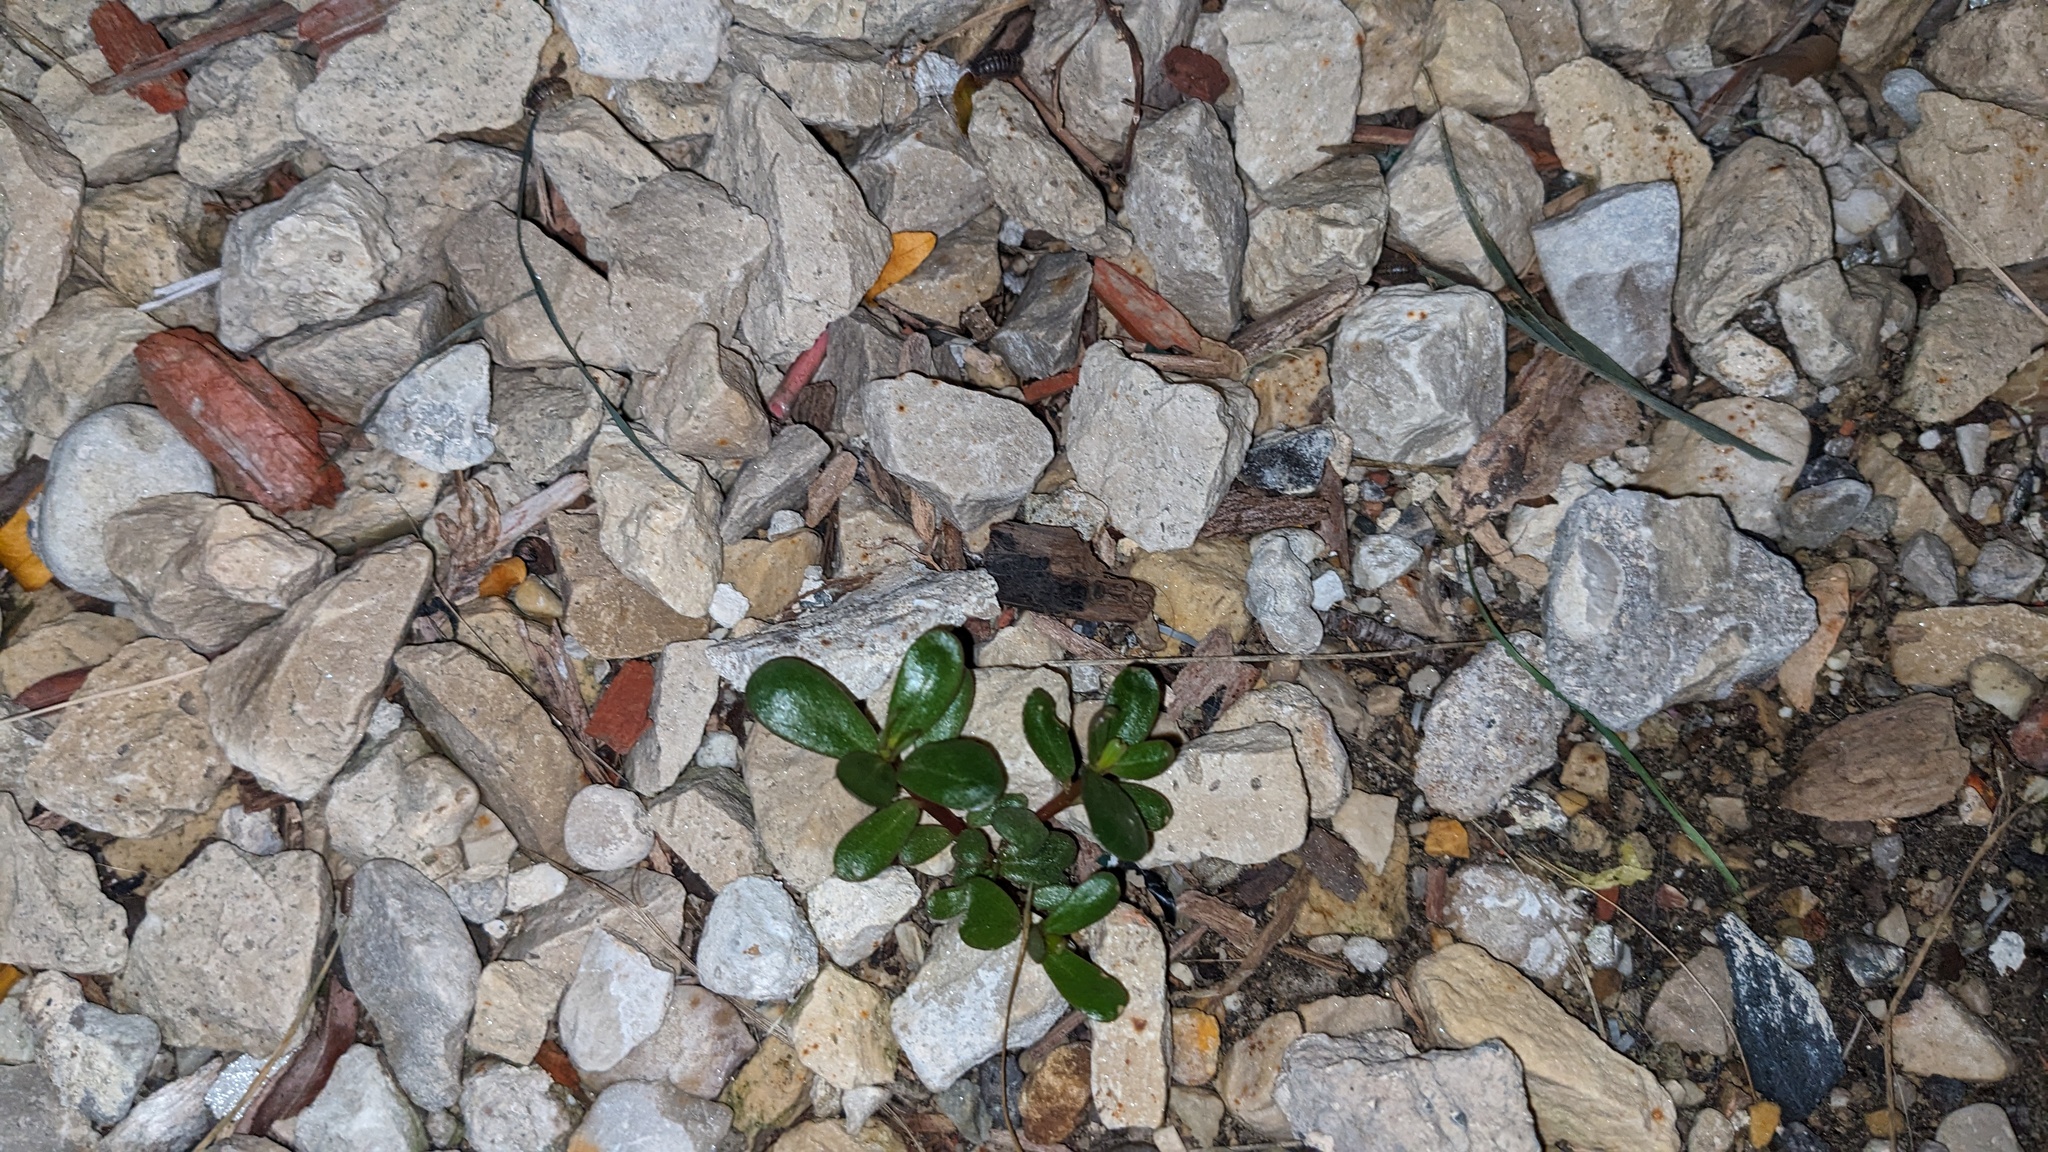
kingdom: Plantae
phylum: Tracheophyta
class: Magnoliopsida
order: Caryophyllales
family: Portulacaceae
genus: Portulaca
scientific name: Portulaca oleracea
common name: Common purslane
